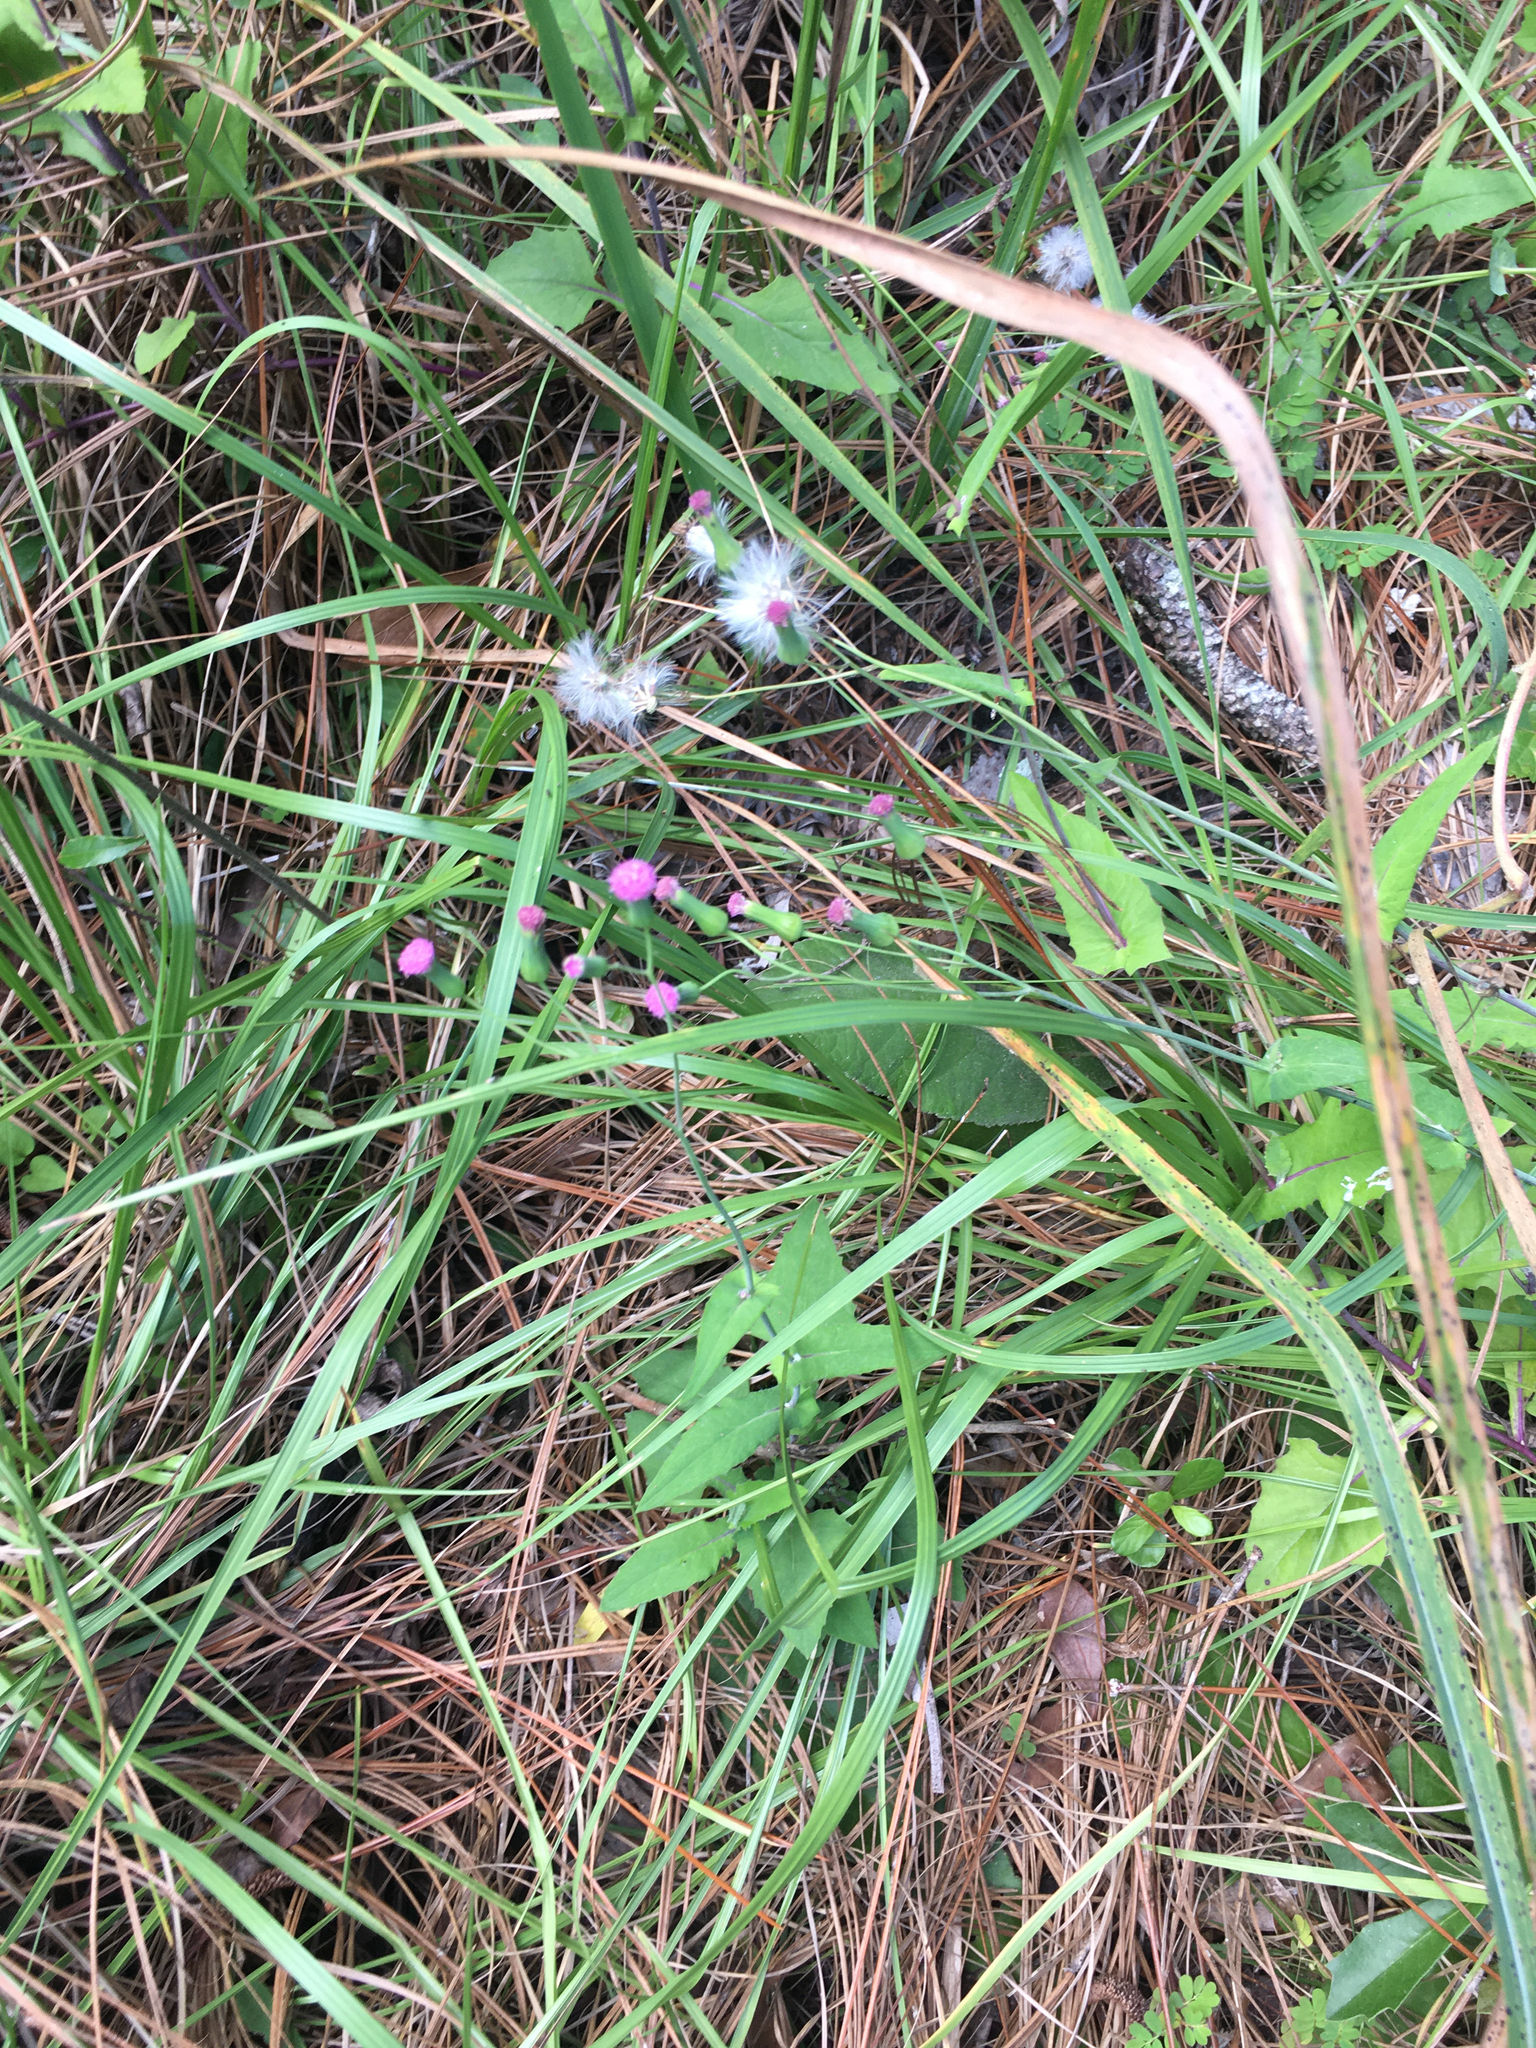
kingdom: Plantae
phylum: Tracheophyta
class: Magnoliopsida
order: Asterales
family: Asteraceae
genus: Emilia
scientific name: Emilia sonchifolia
